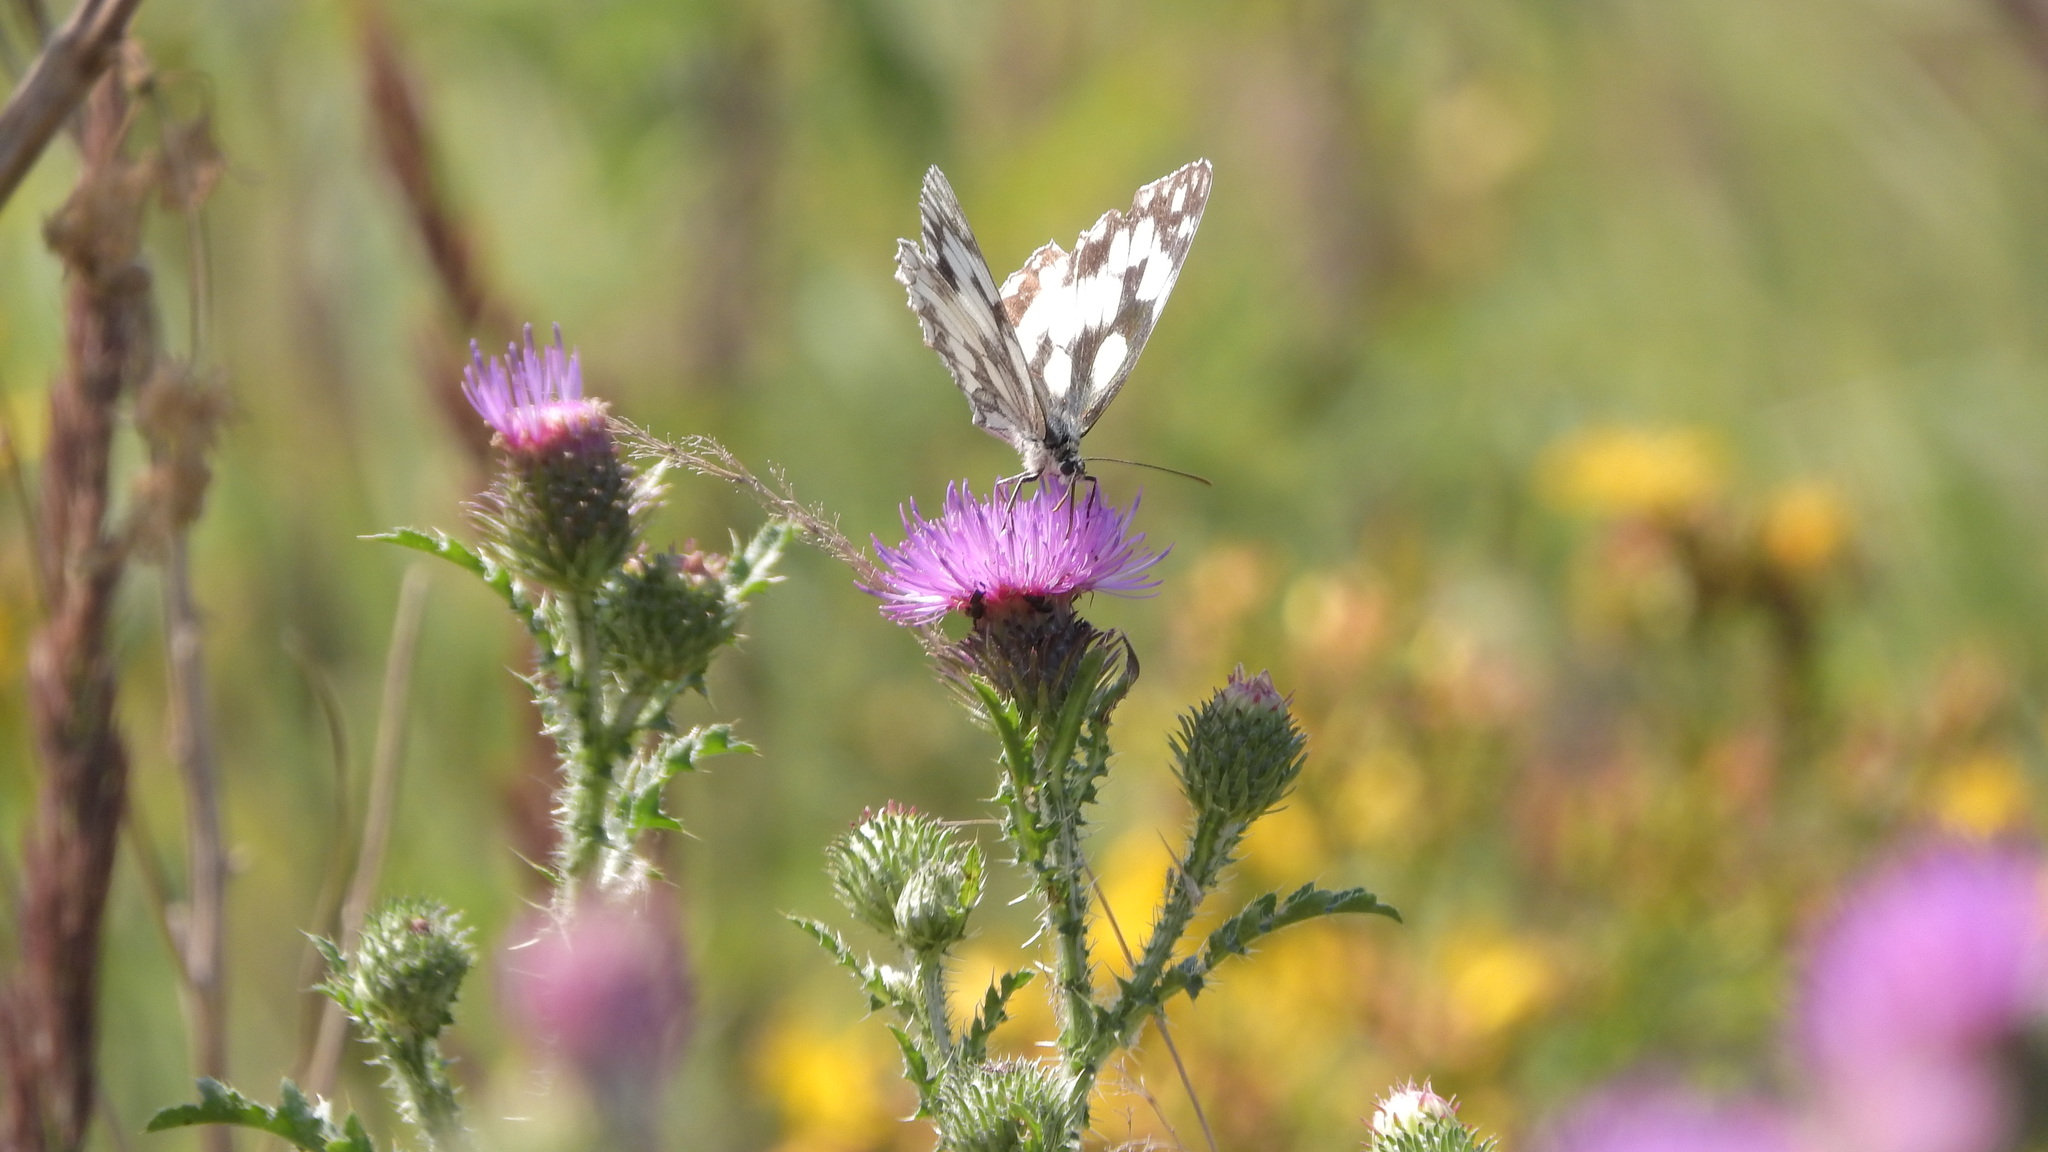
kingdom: Animalia
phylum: Arthropoda
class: Insecta
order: Lepidoptera
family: Nymphalidae
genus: Melanargia
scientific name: Melanargia galathea
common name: Marbled white
